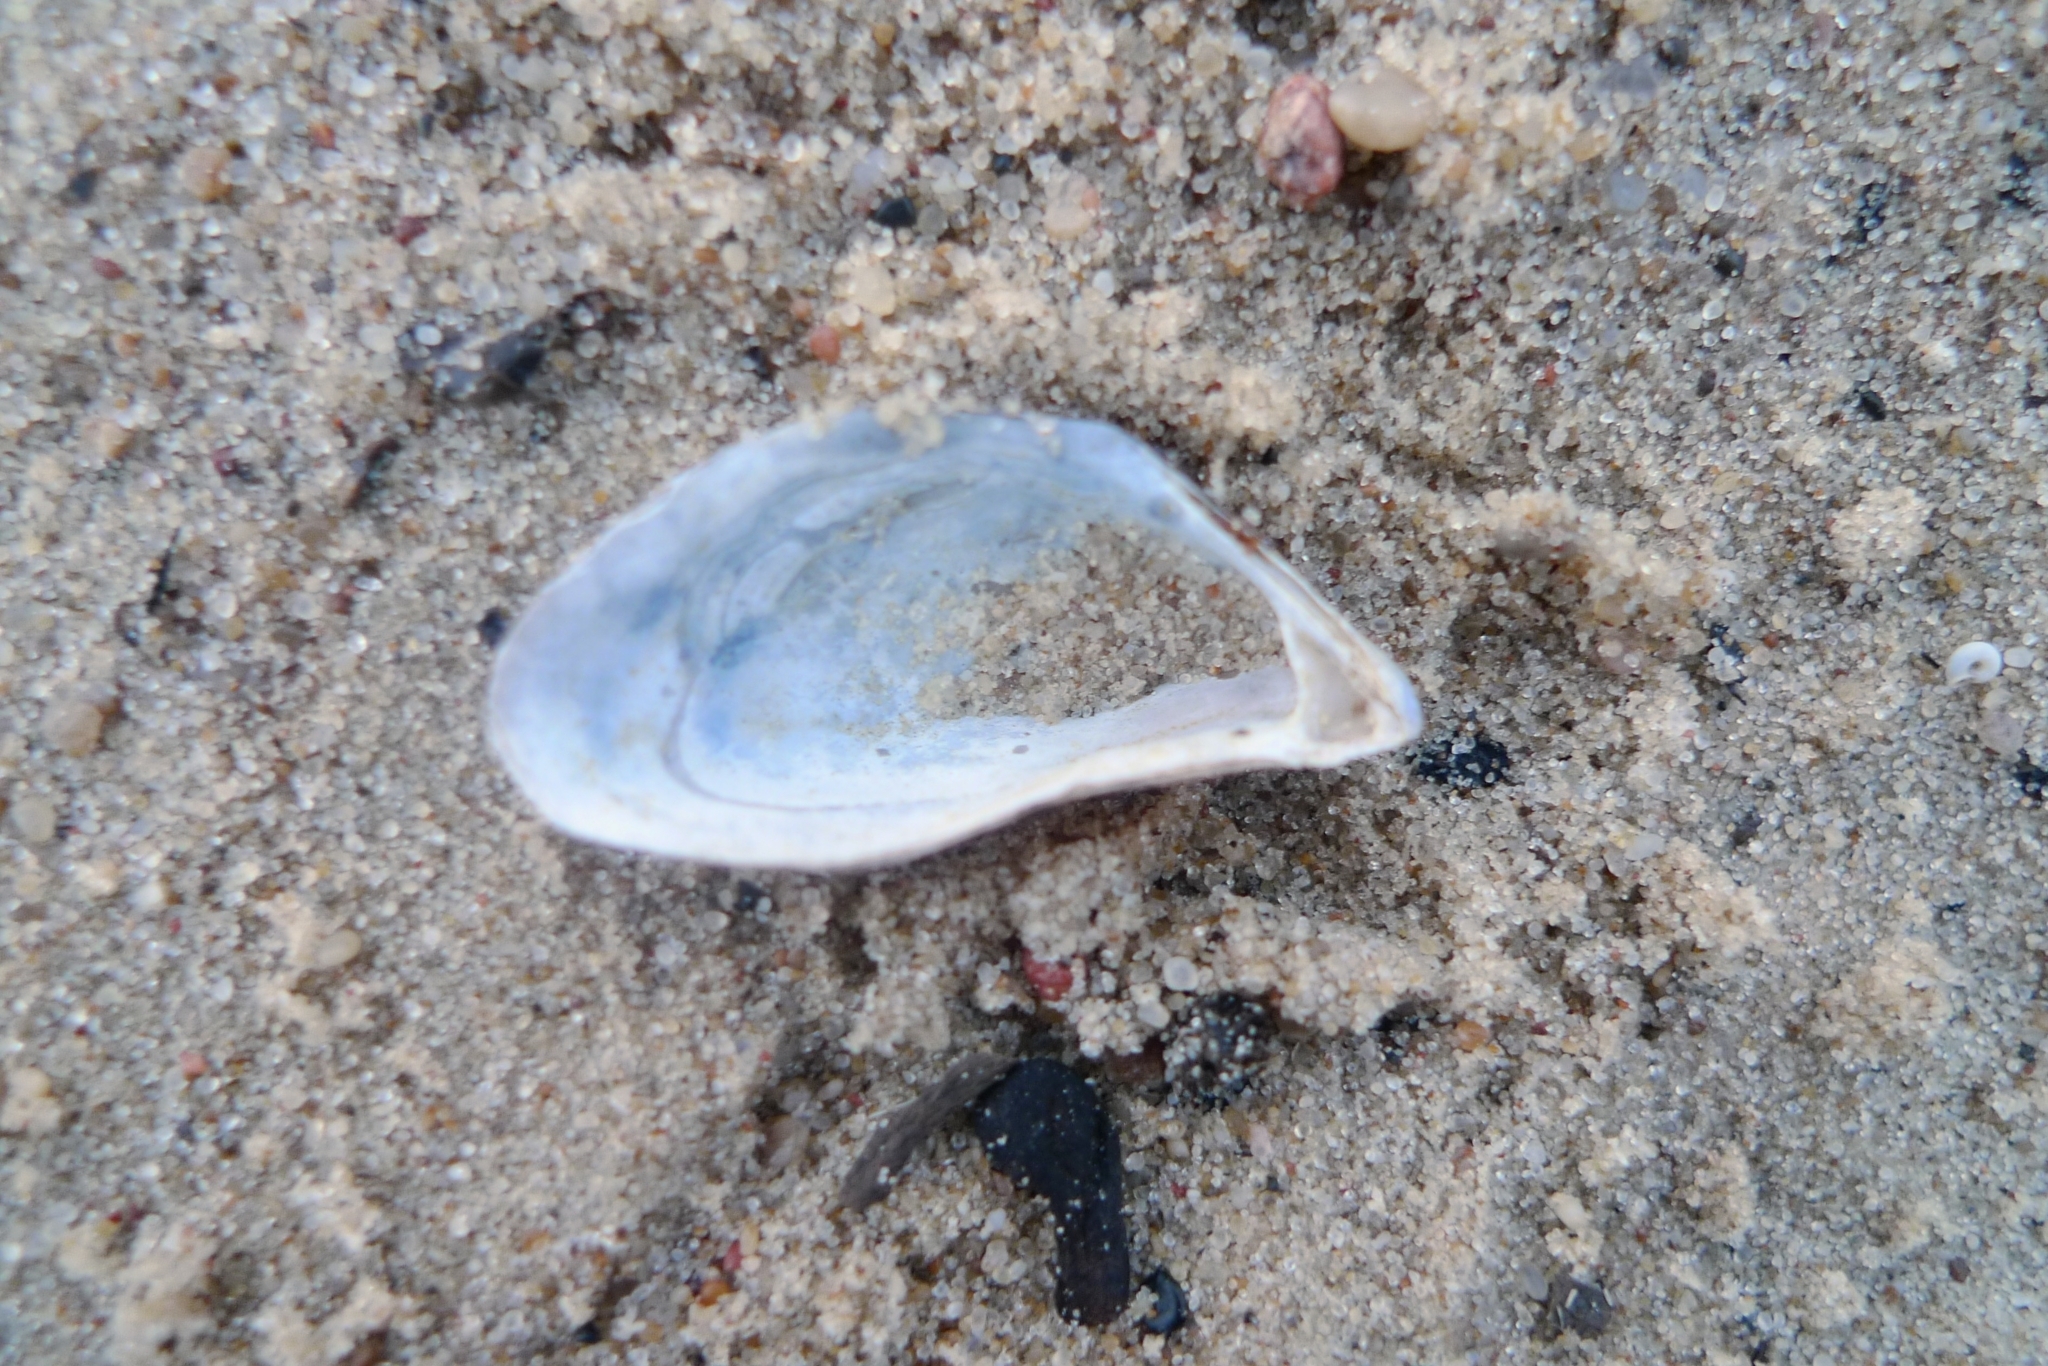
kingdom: Animalia
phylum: Mollusca
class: Bivalvia
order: Myida
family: Dreissenidae
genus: Dreissena
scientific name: Dreissena polymorpha
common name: Zebra mussel
